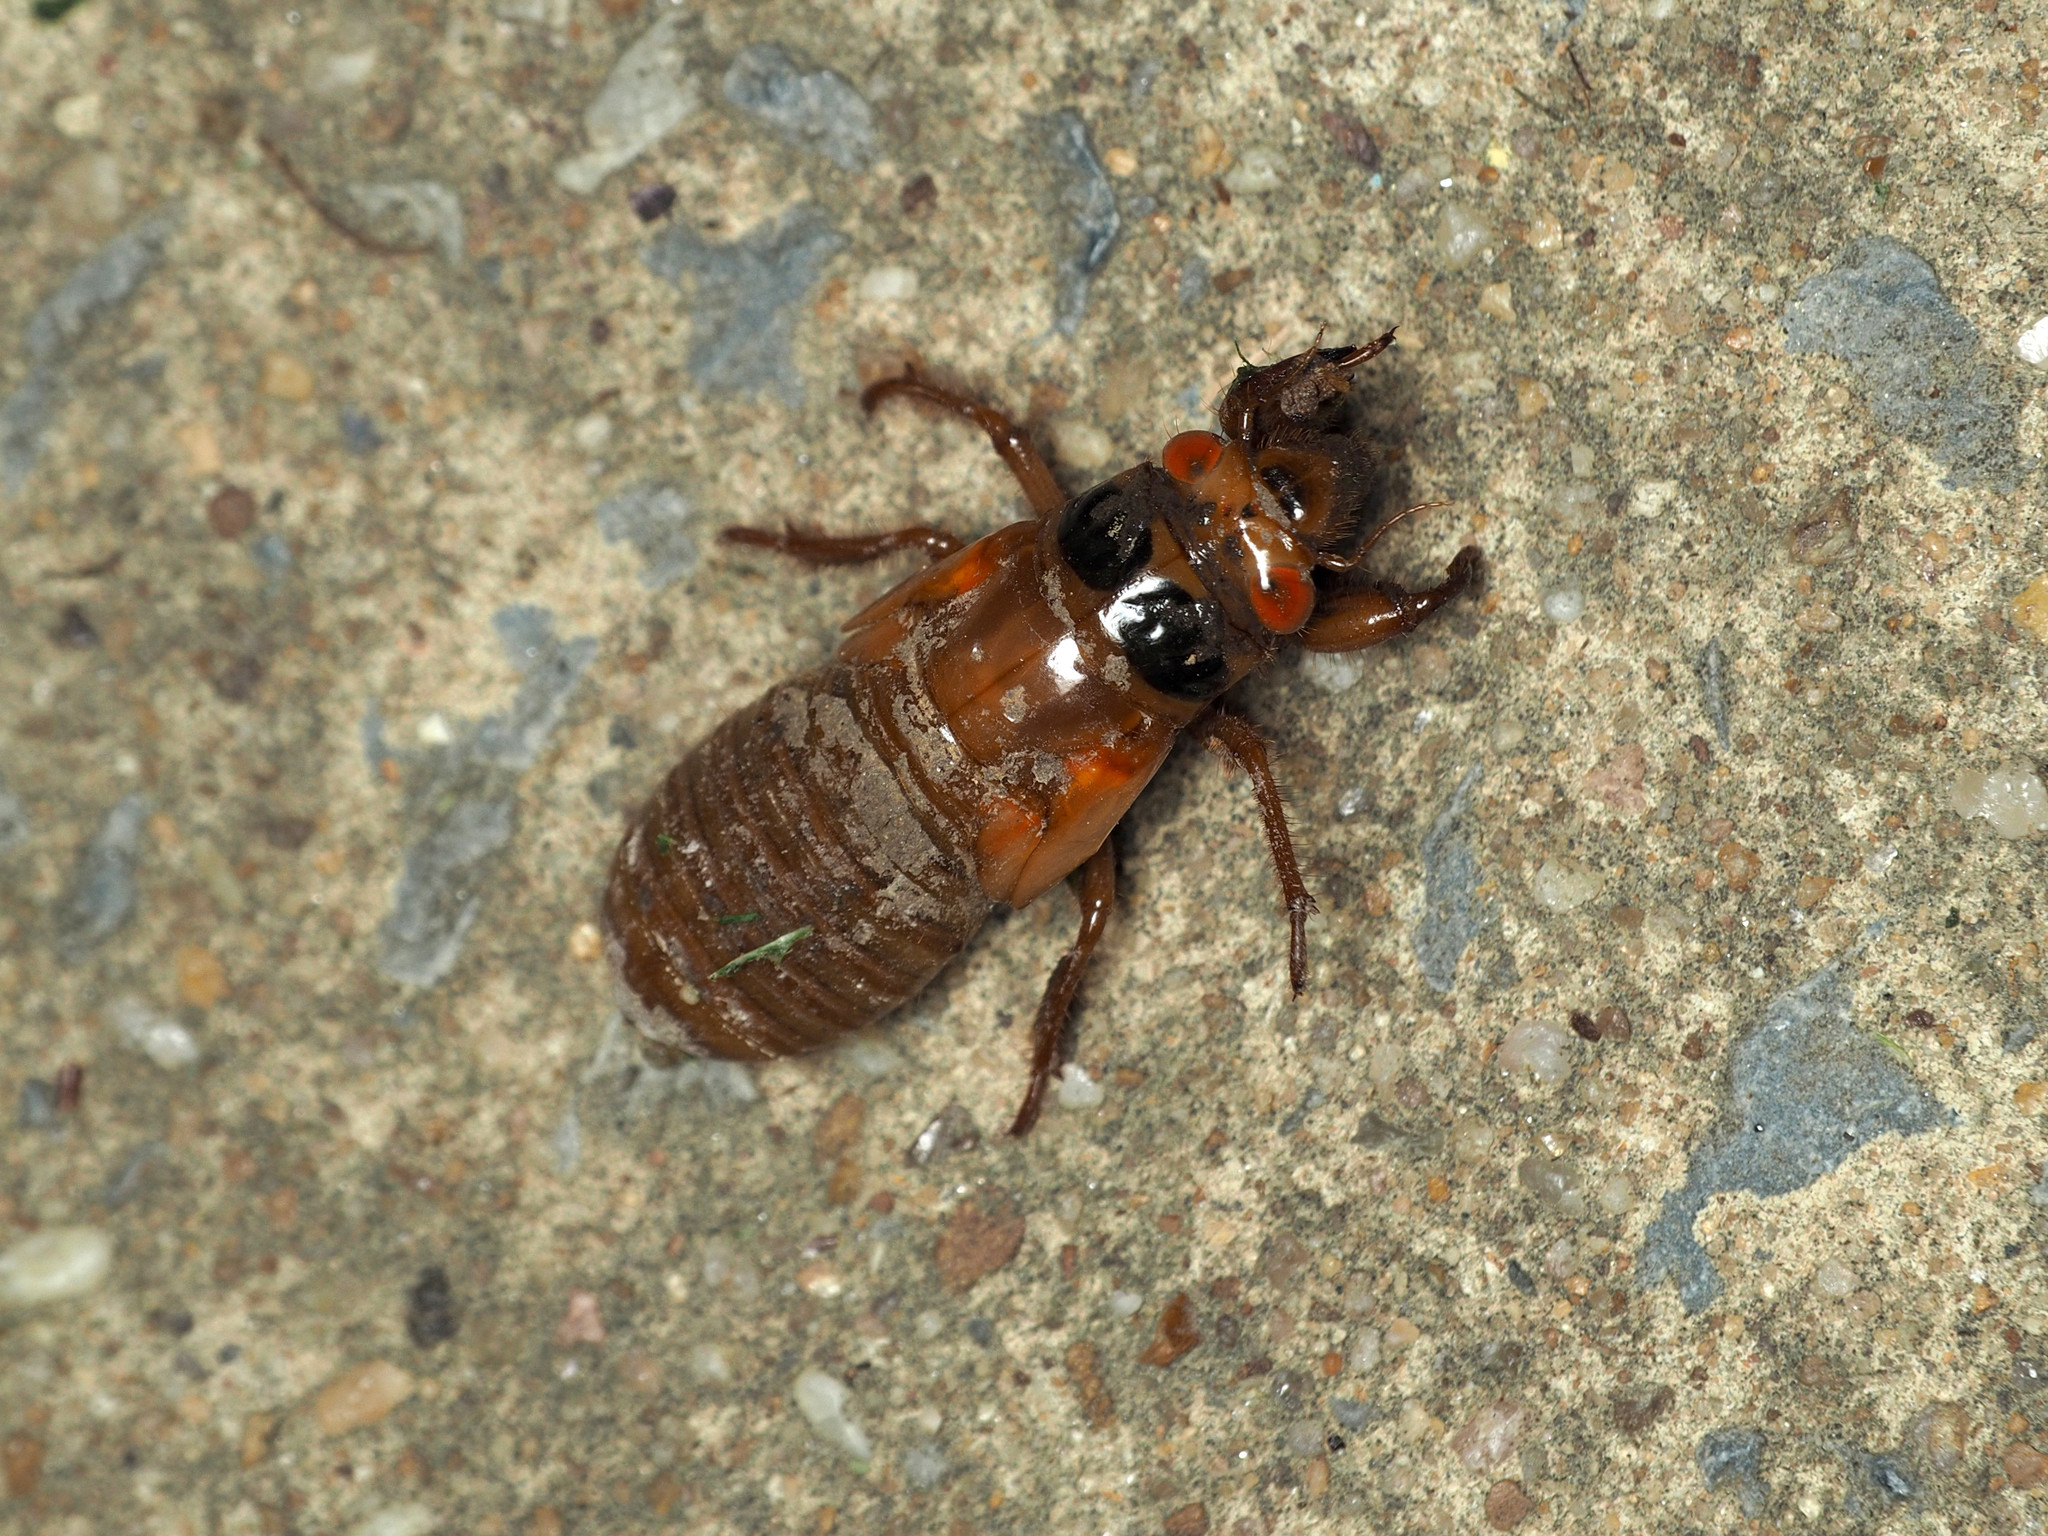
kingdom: Animalia
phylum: Arthropoda
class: Insecta
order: Hemiptera
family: Cicadidae
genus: Magicicada
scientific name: Magicicada
